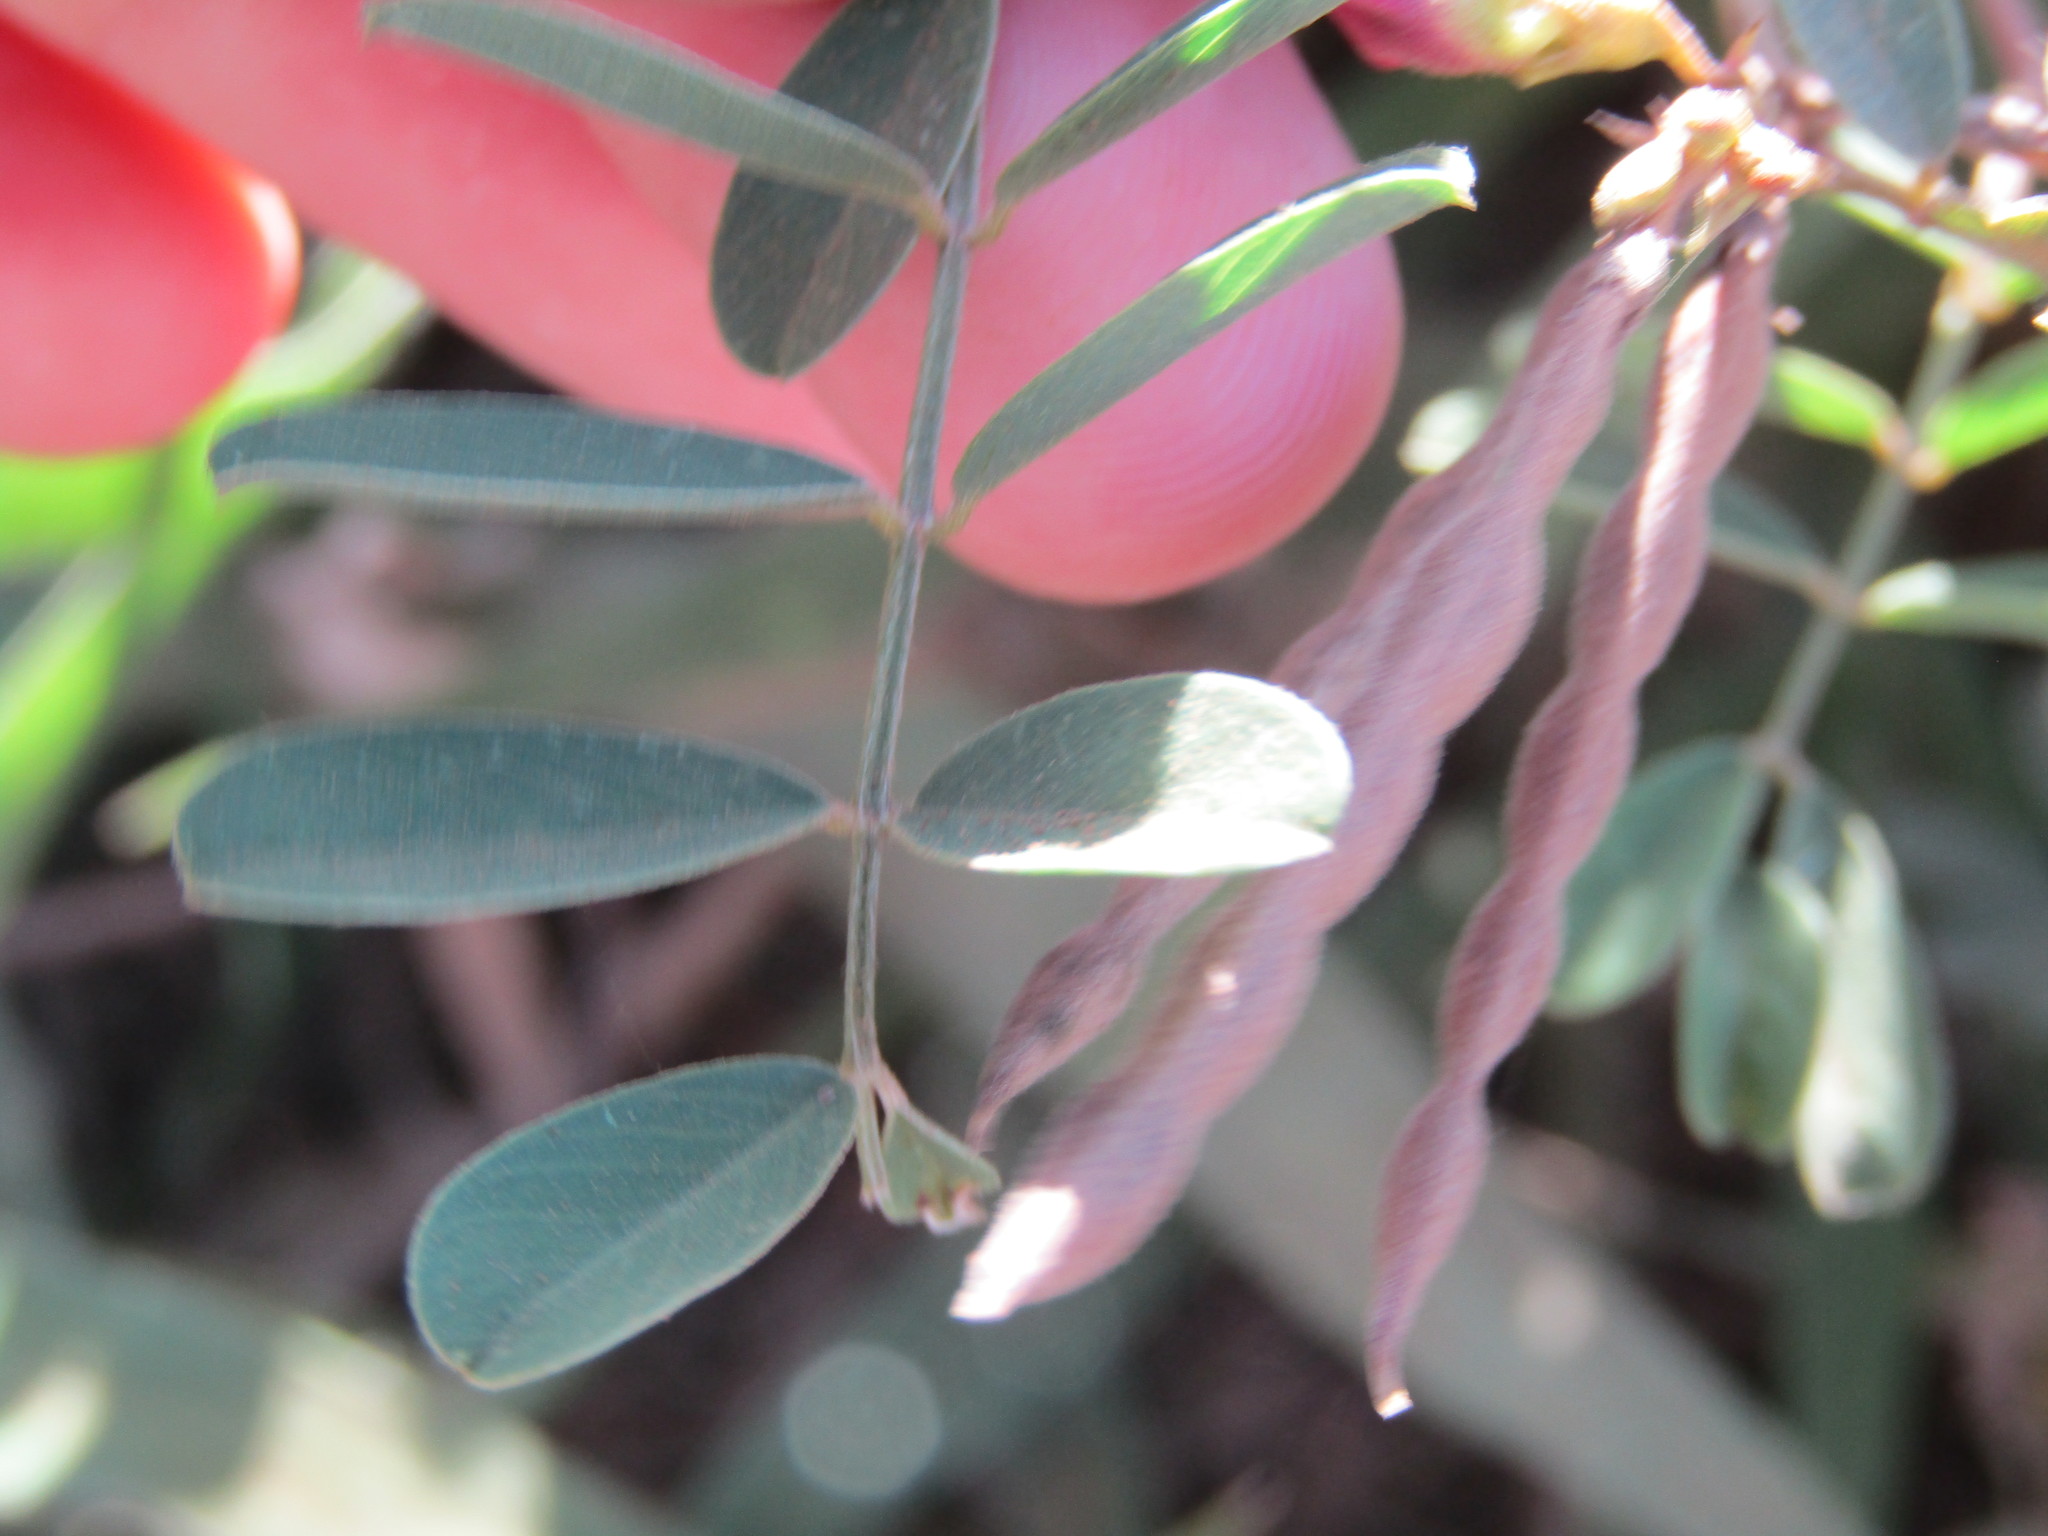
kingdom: Plantae
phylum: Tracheophyta
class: Magnoliopsida
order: Fabales
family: Fabaceae
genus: Tephrosia
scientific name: Tephrosia cinerea
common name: Ashen hoarypea
